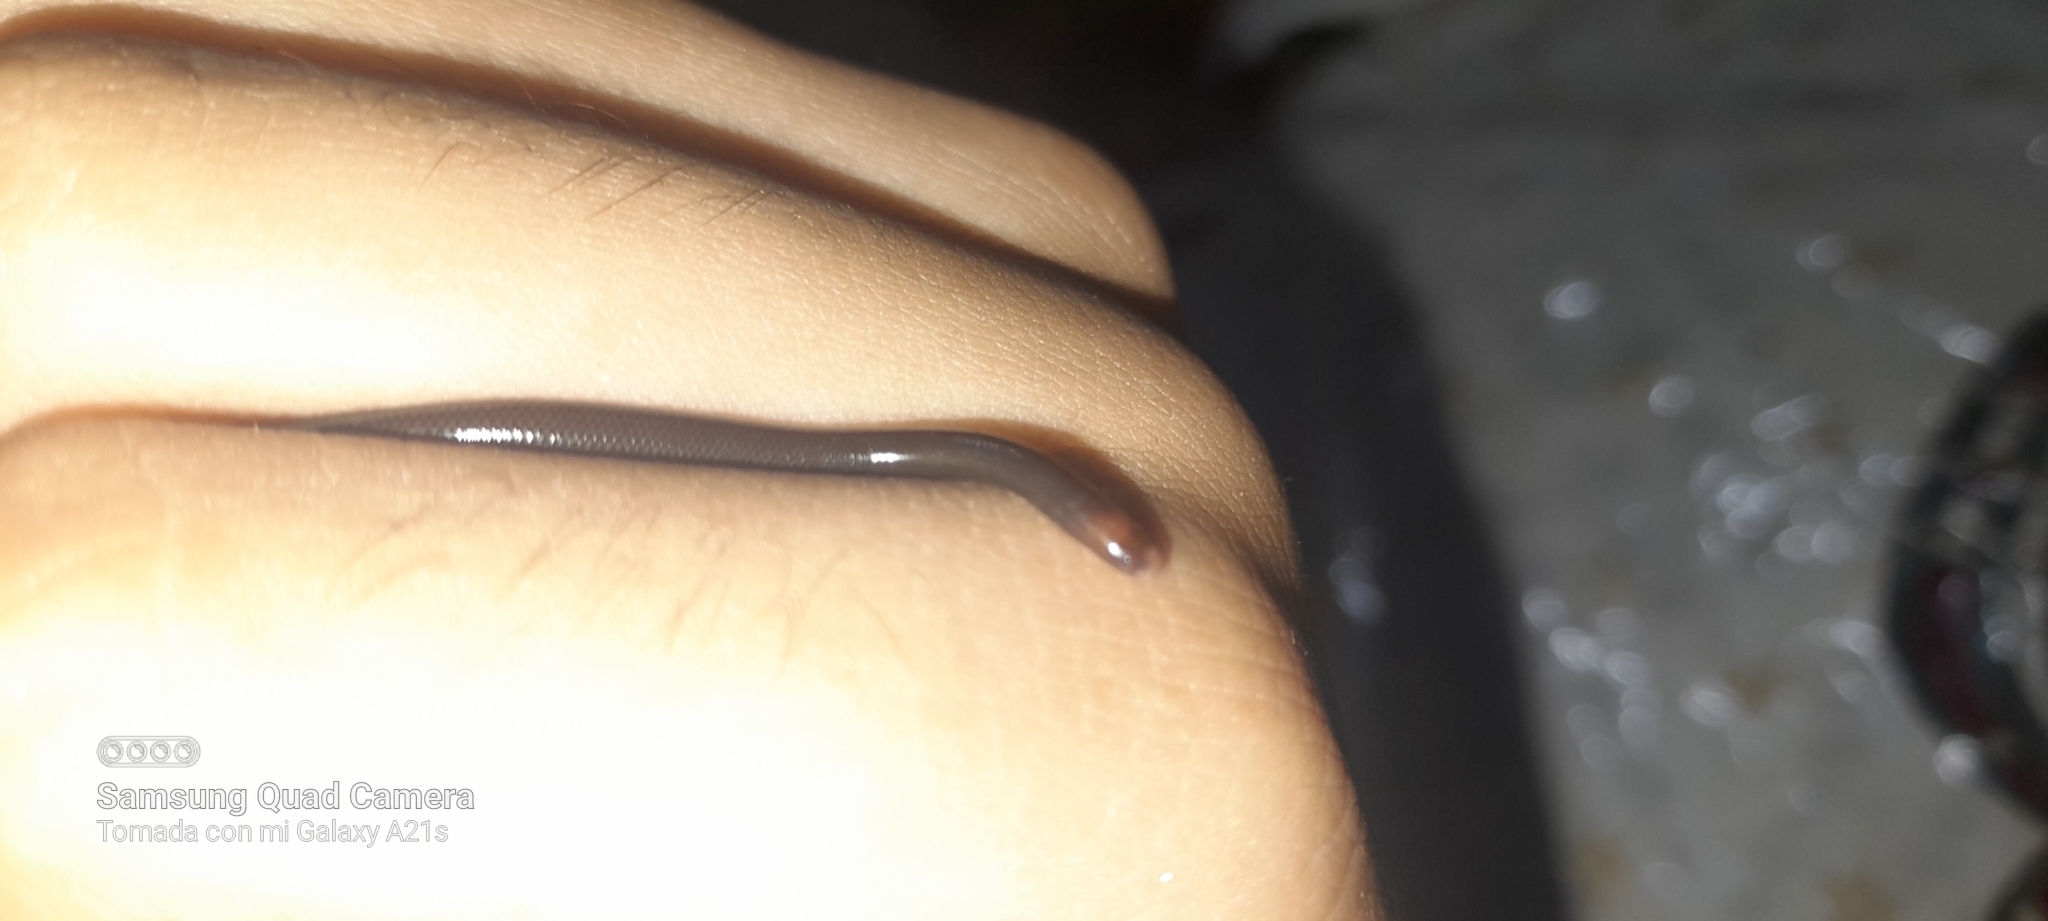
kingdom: Animalia
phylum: Chordata
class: Squamata
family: Anomalepididae
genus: Liotyphlops
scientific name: Liotyphlops albirostris
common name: Whitenose blind snake
